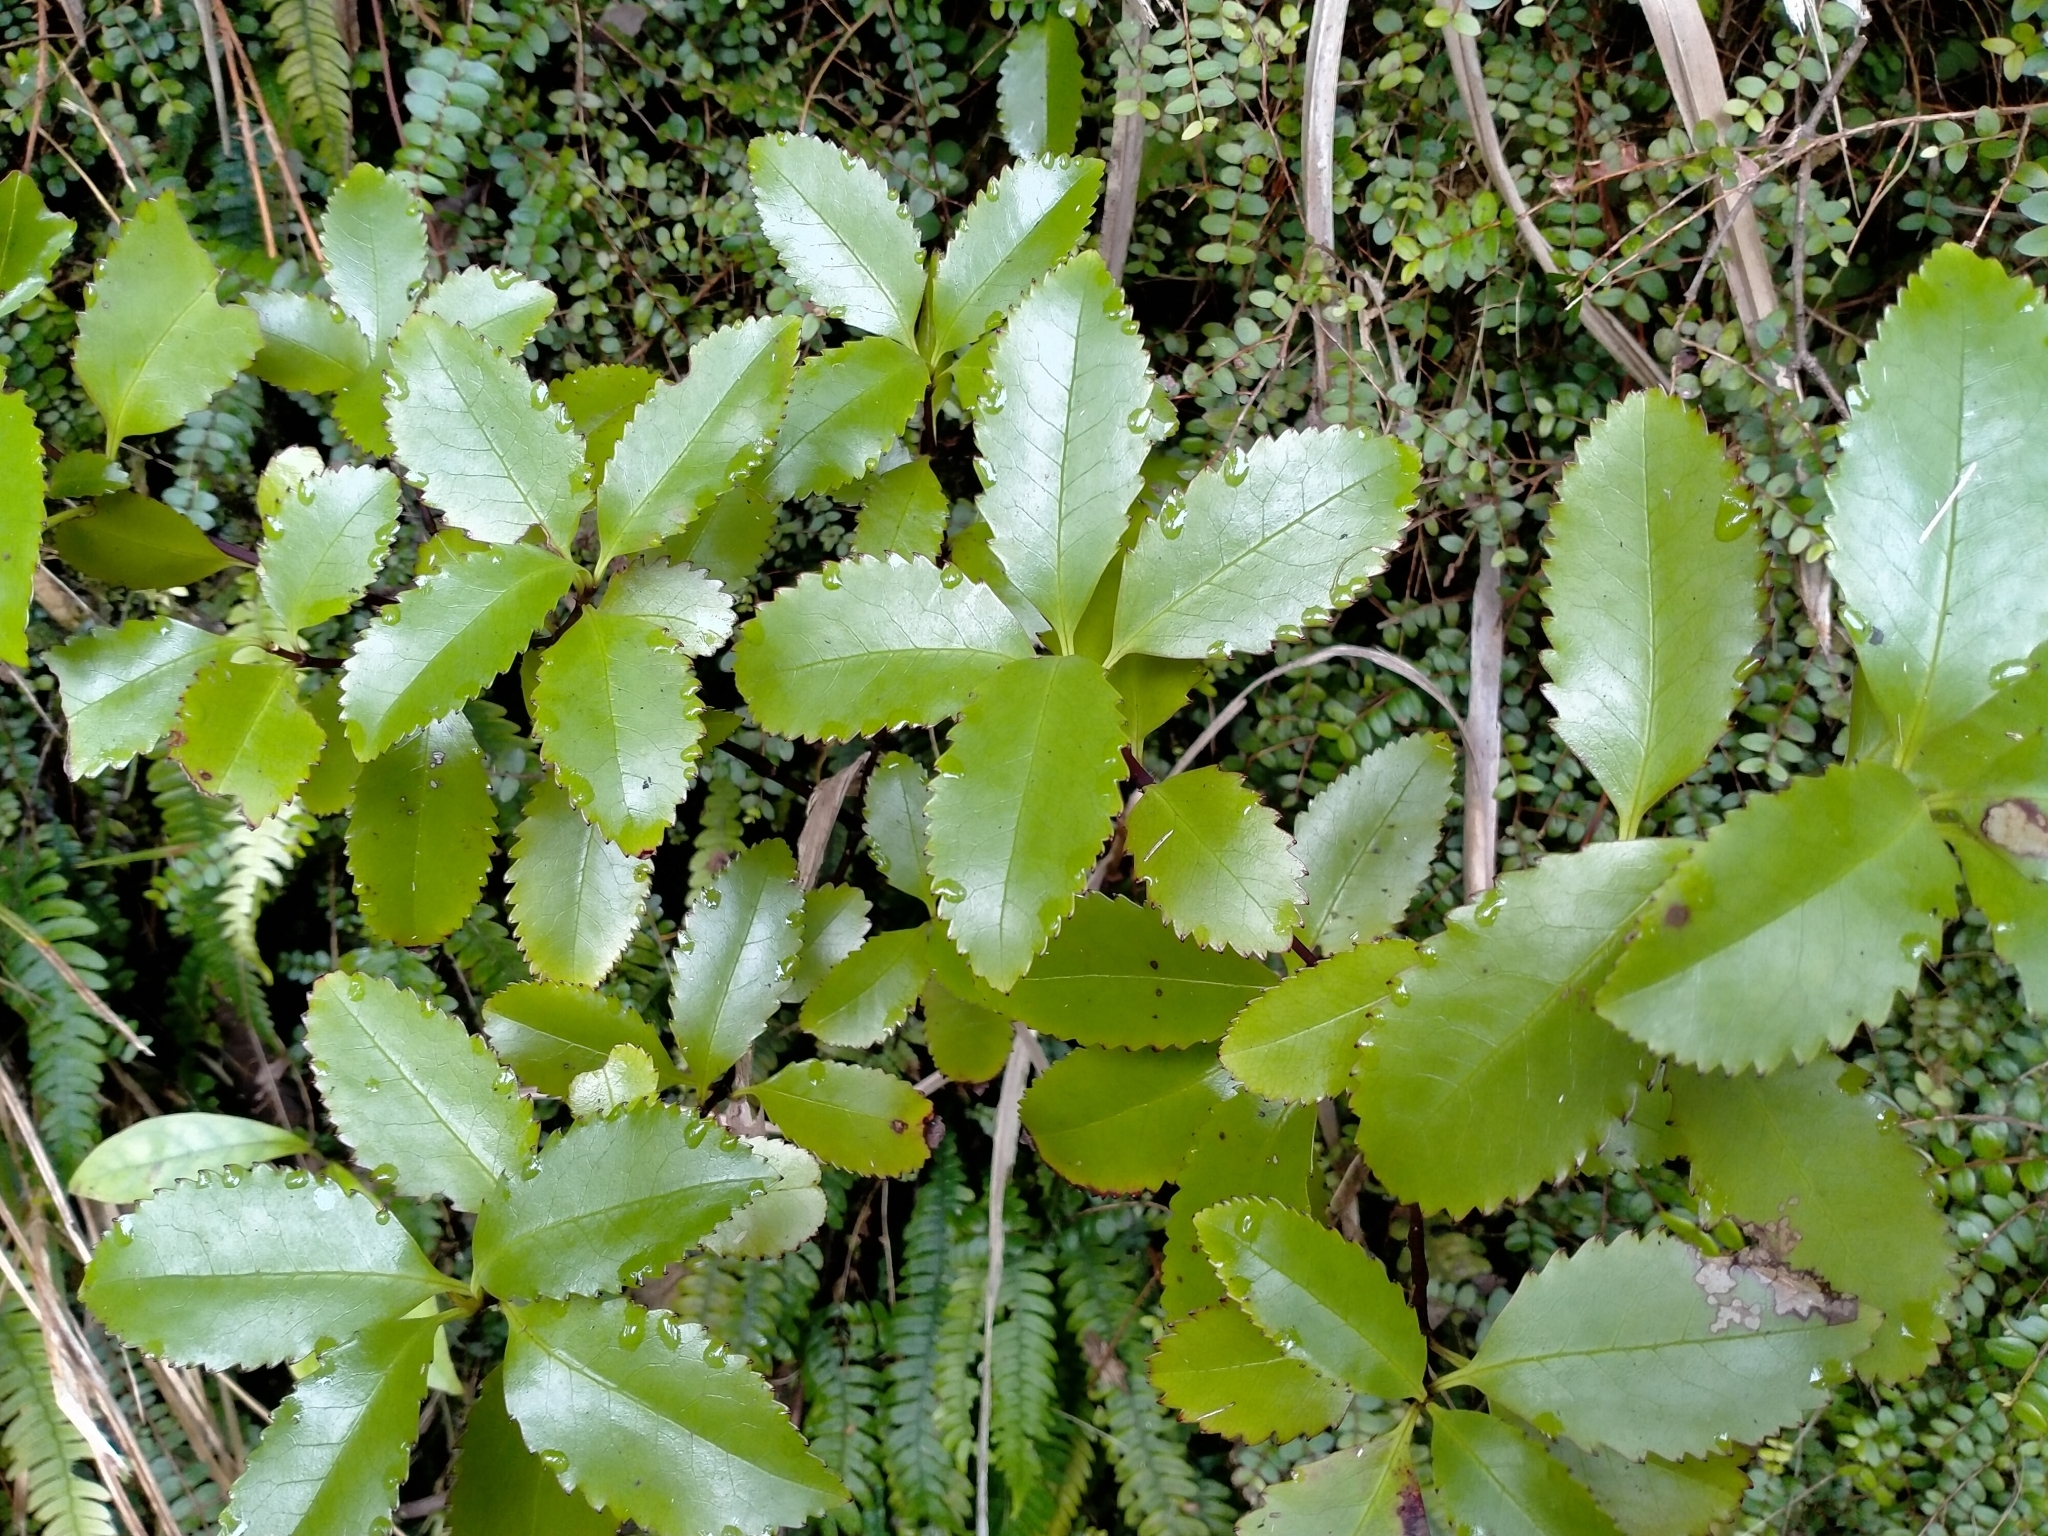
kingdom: Plantae
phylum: Tracheophyta
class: Magnoliopsida
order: Chloranthales
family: Chloranthaceae
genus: Ascarina
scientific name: Ascarina lucida
